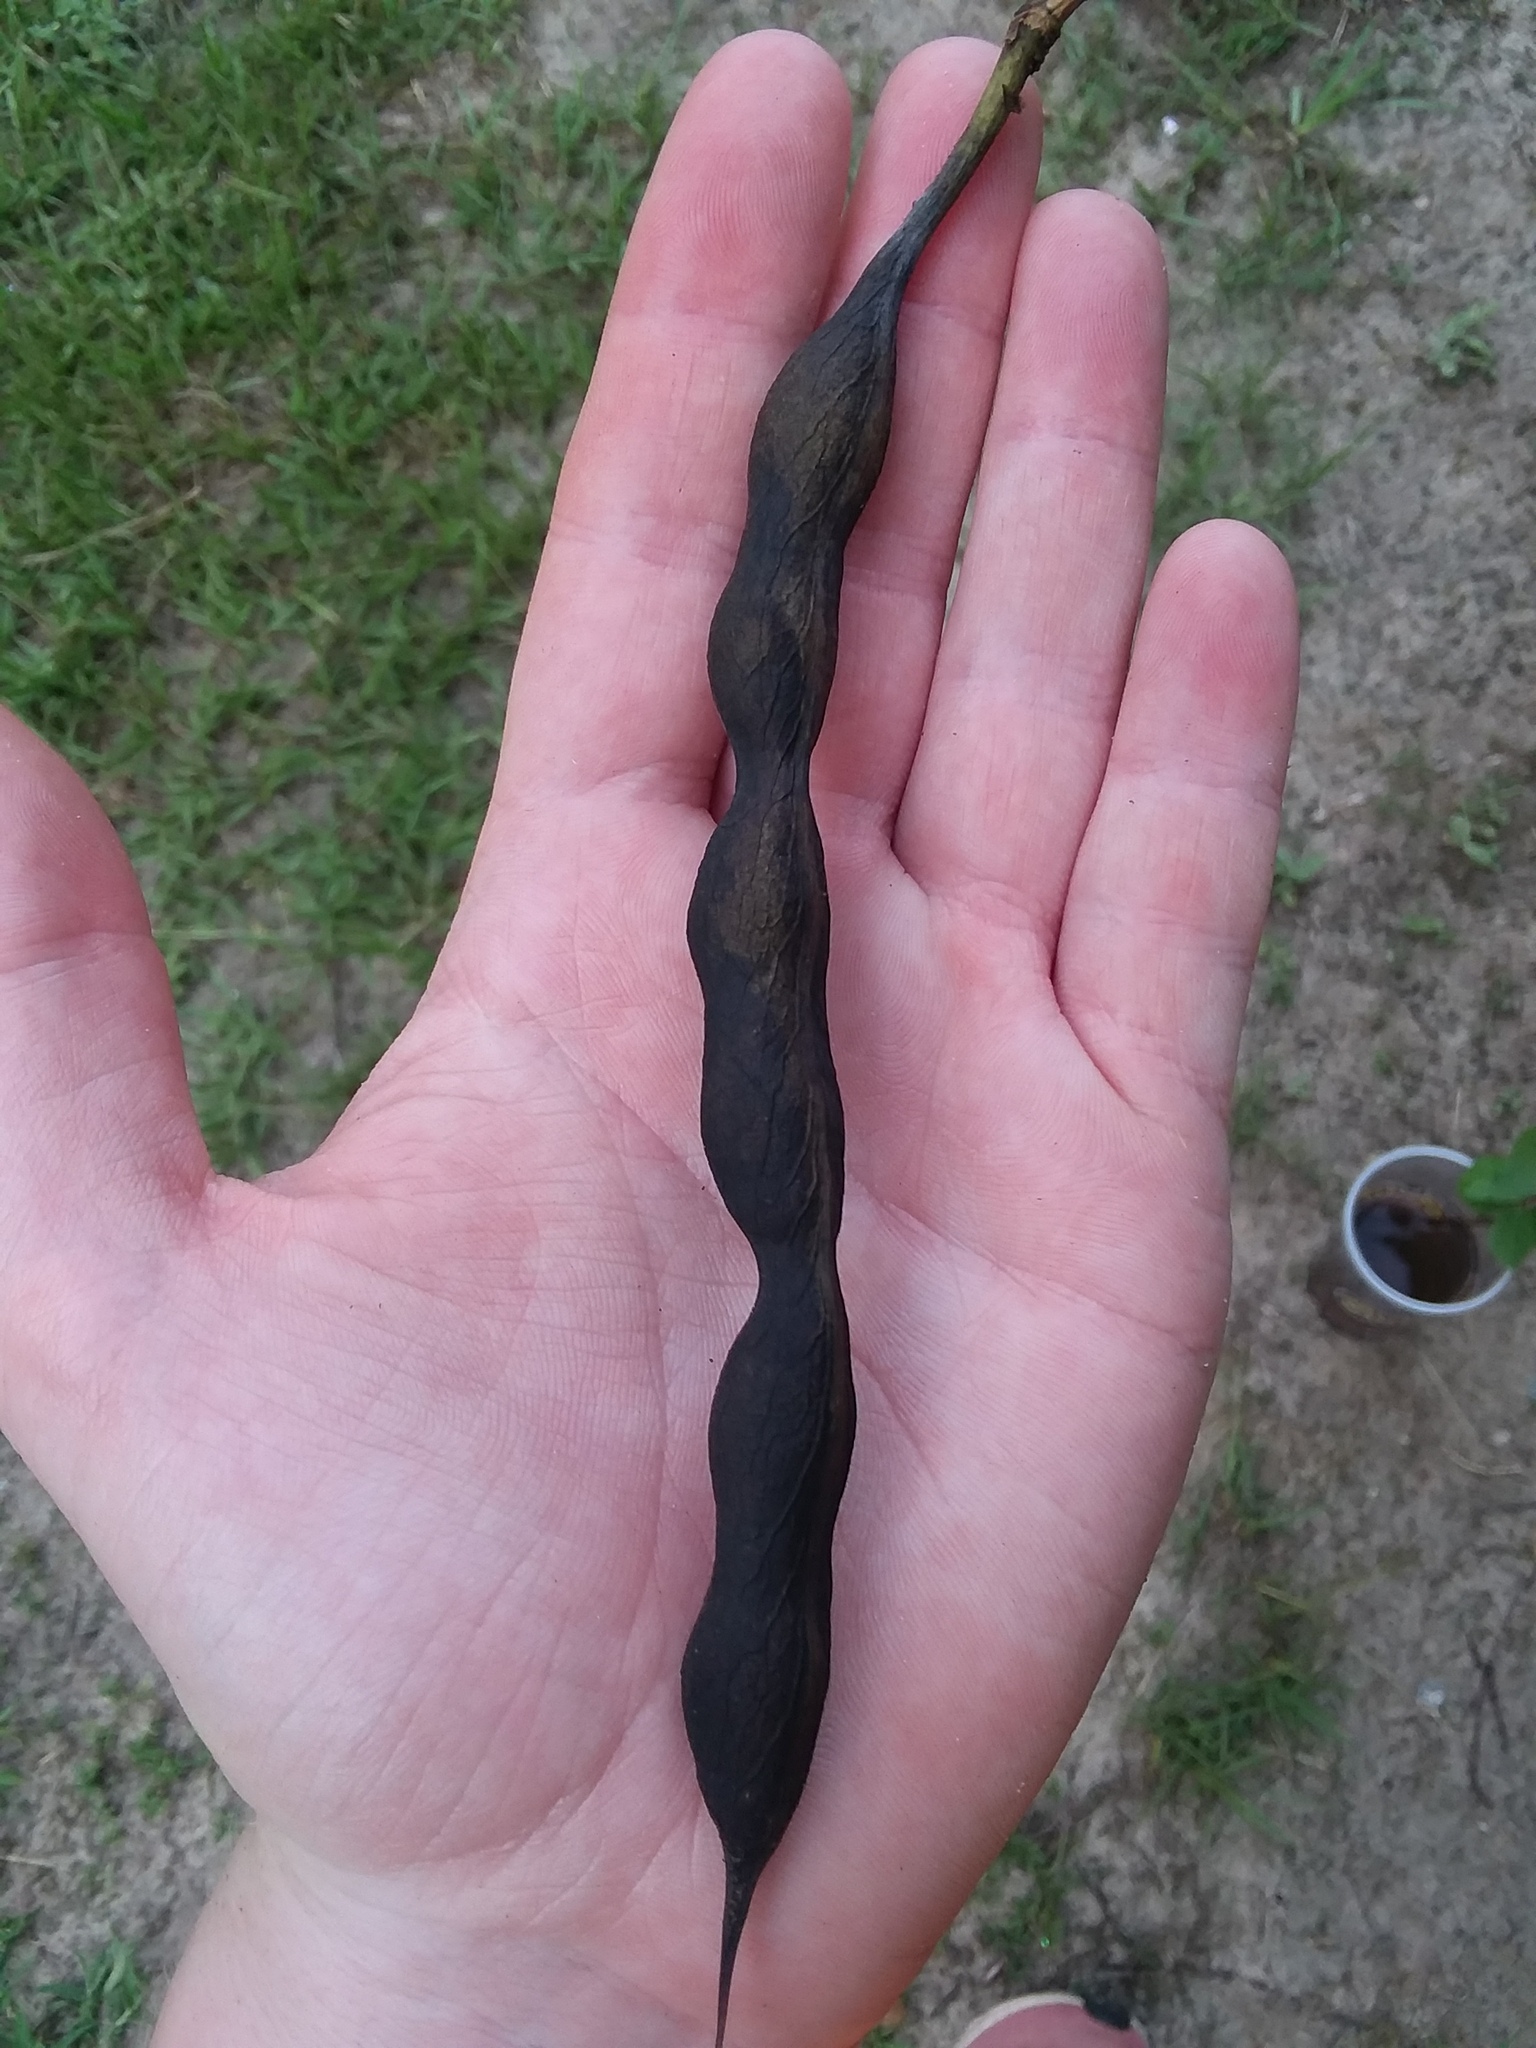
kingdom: Plantae
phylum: Tracheophyta
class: Magnoliopsida
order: Fabales
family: Fabaceae
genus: Erythrina
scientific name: Erythrina herbacea
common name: Coral-bean
